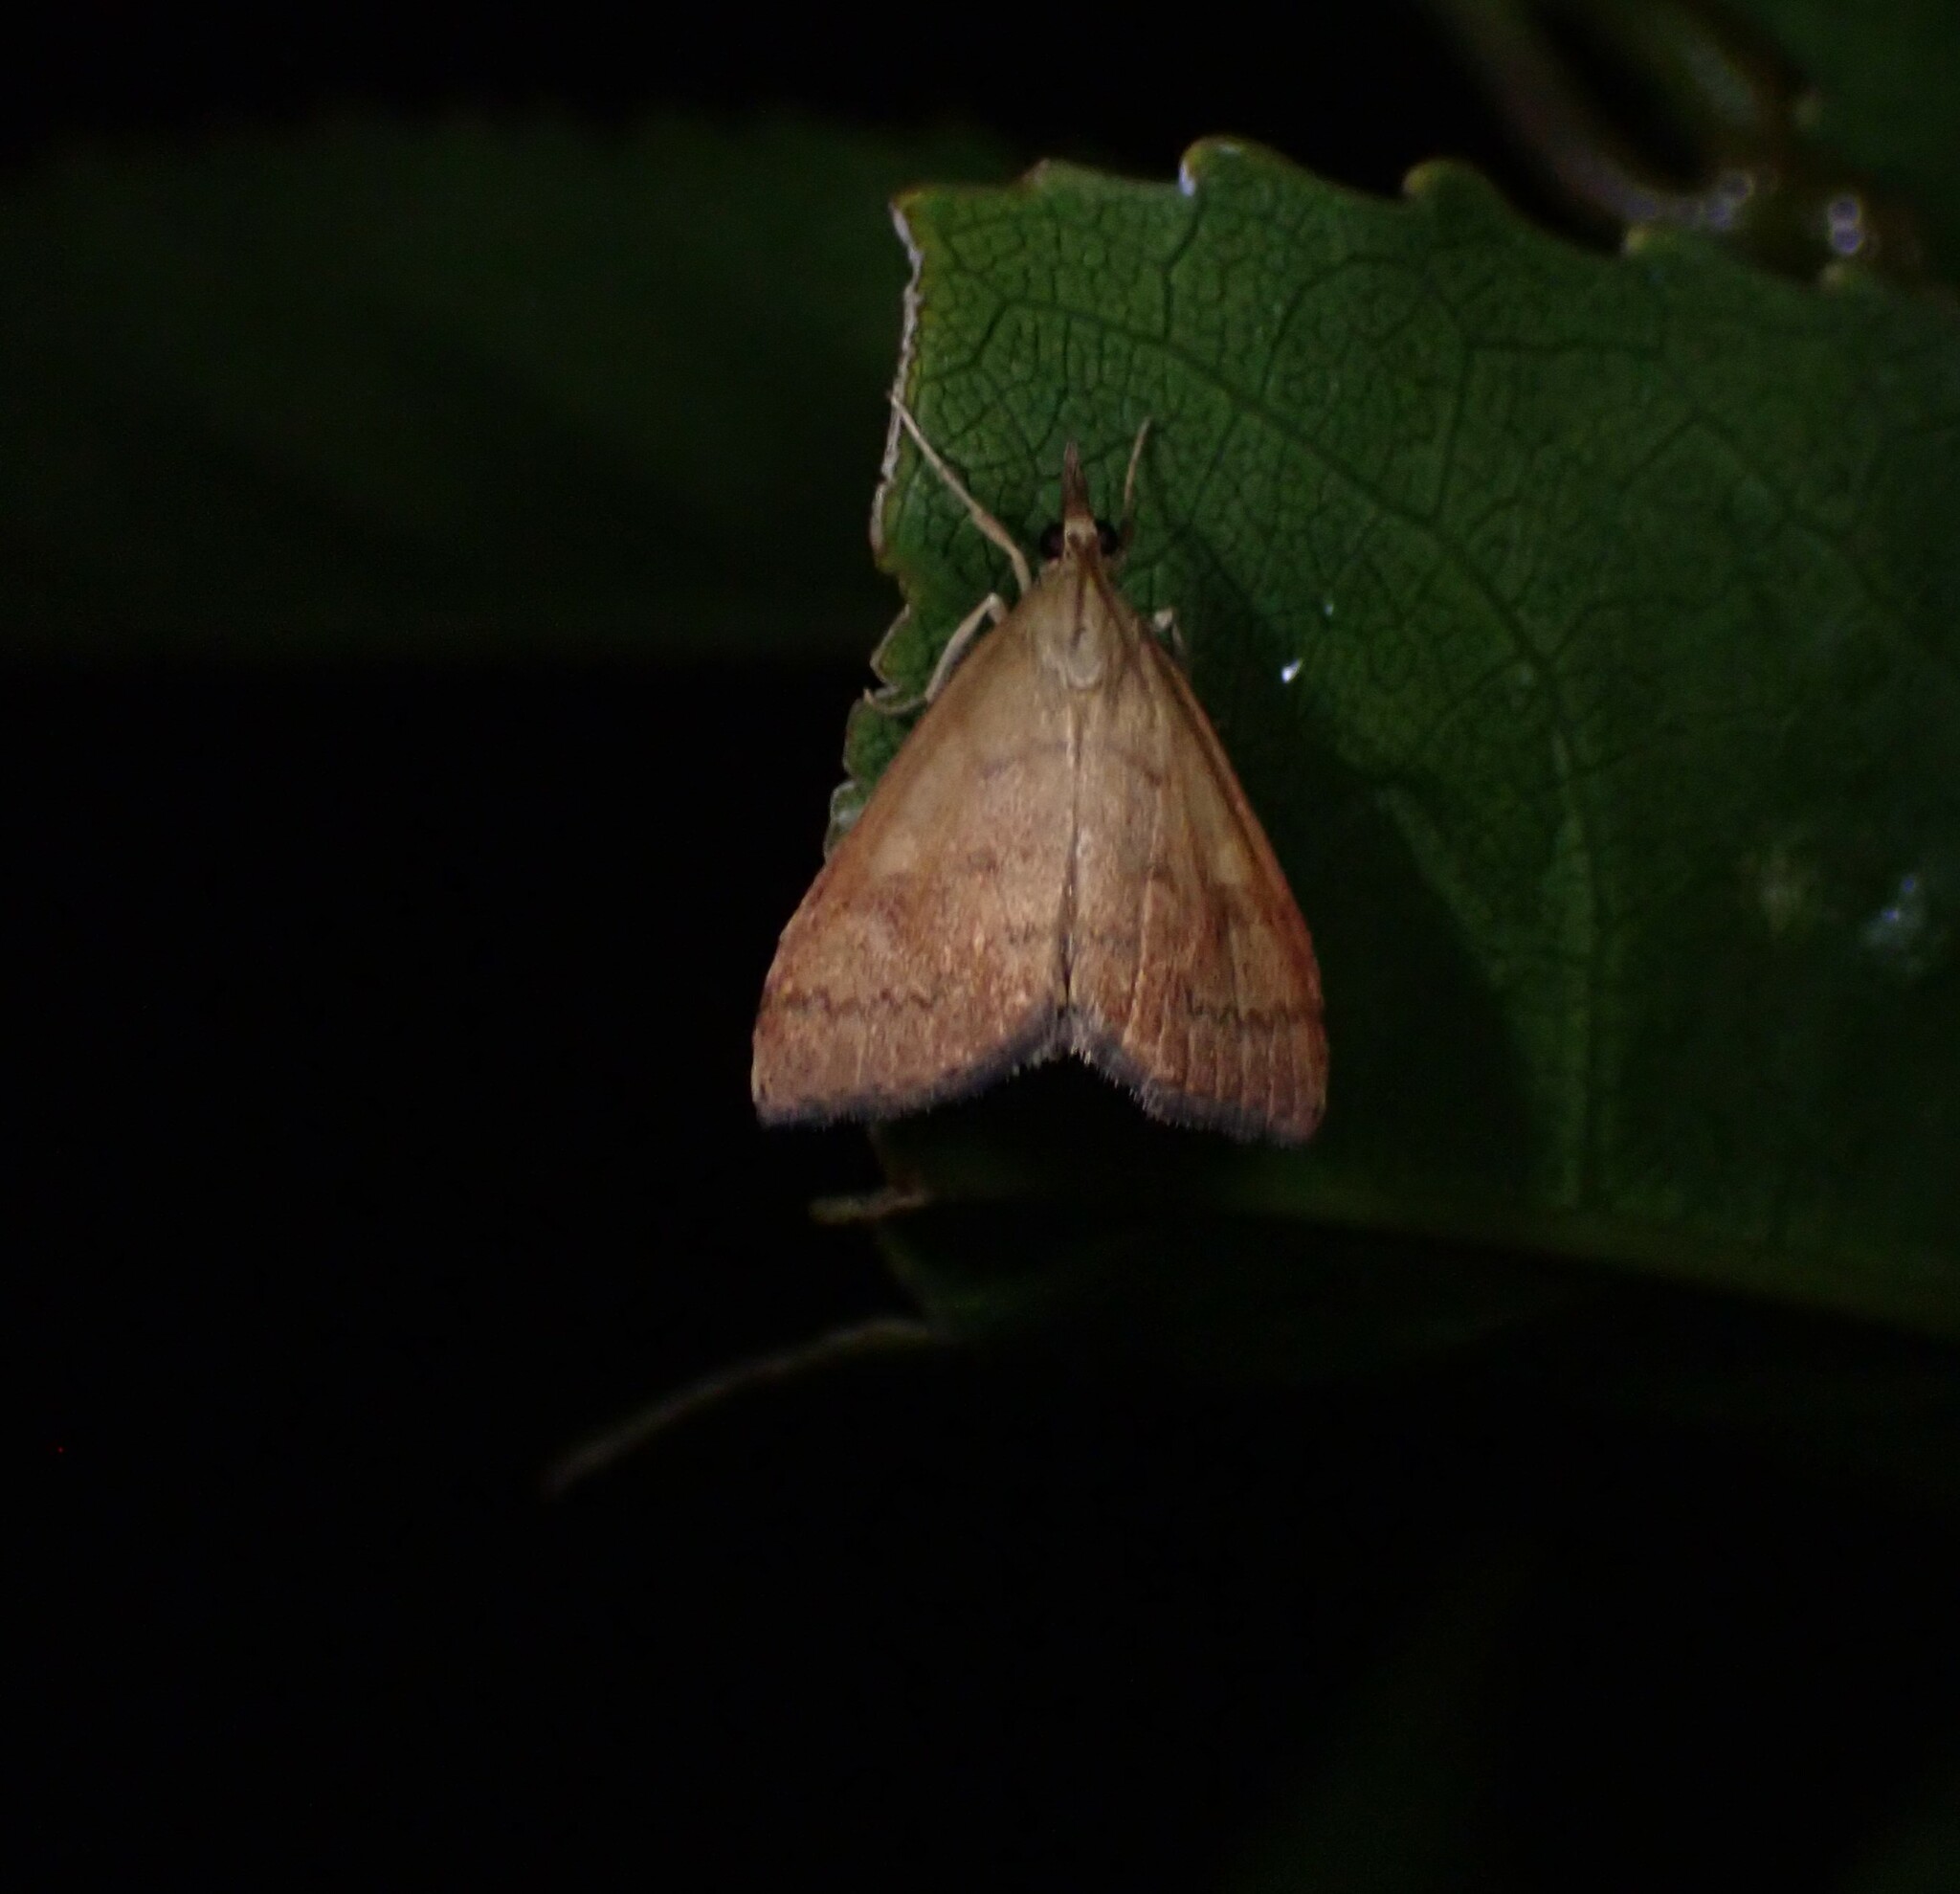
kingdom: Animalia
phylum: Arthropoda
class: Insecta
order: Lepidoptera
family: Crambidae
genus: Udea
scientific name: Udea Mnesictena flavidalis
